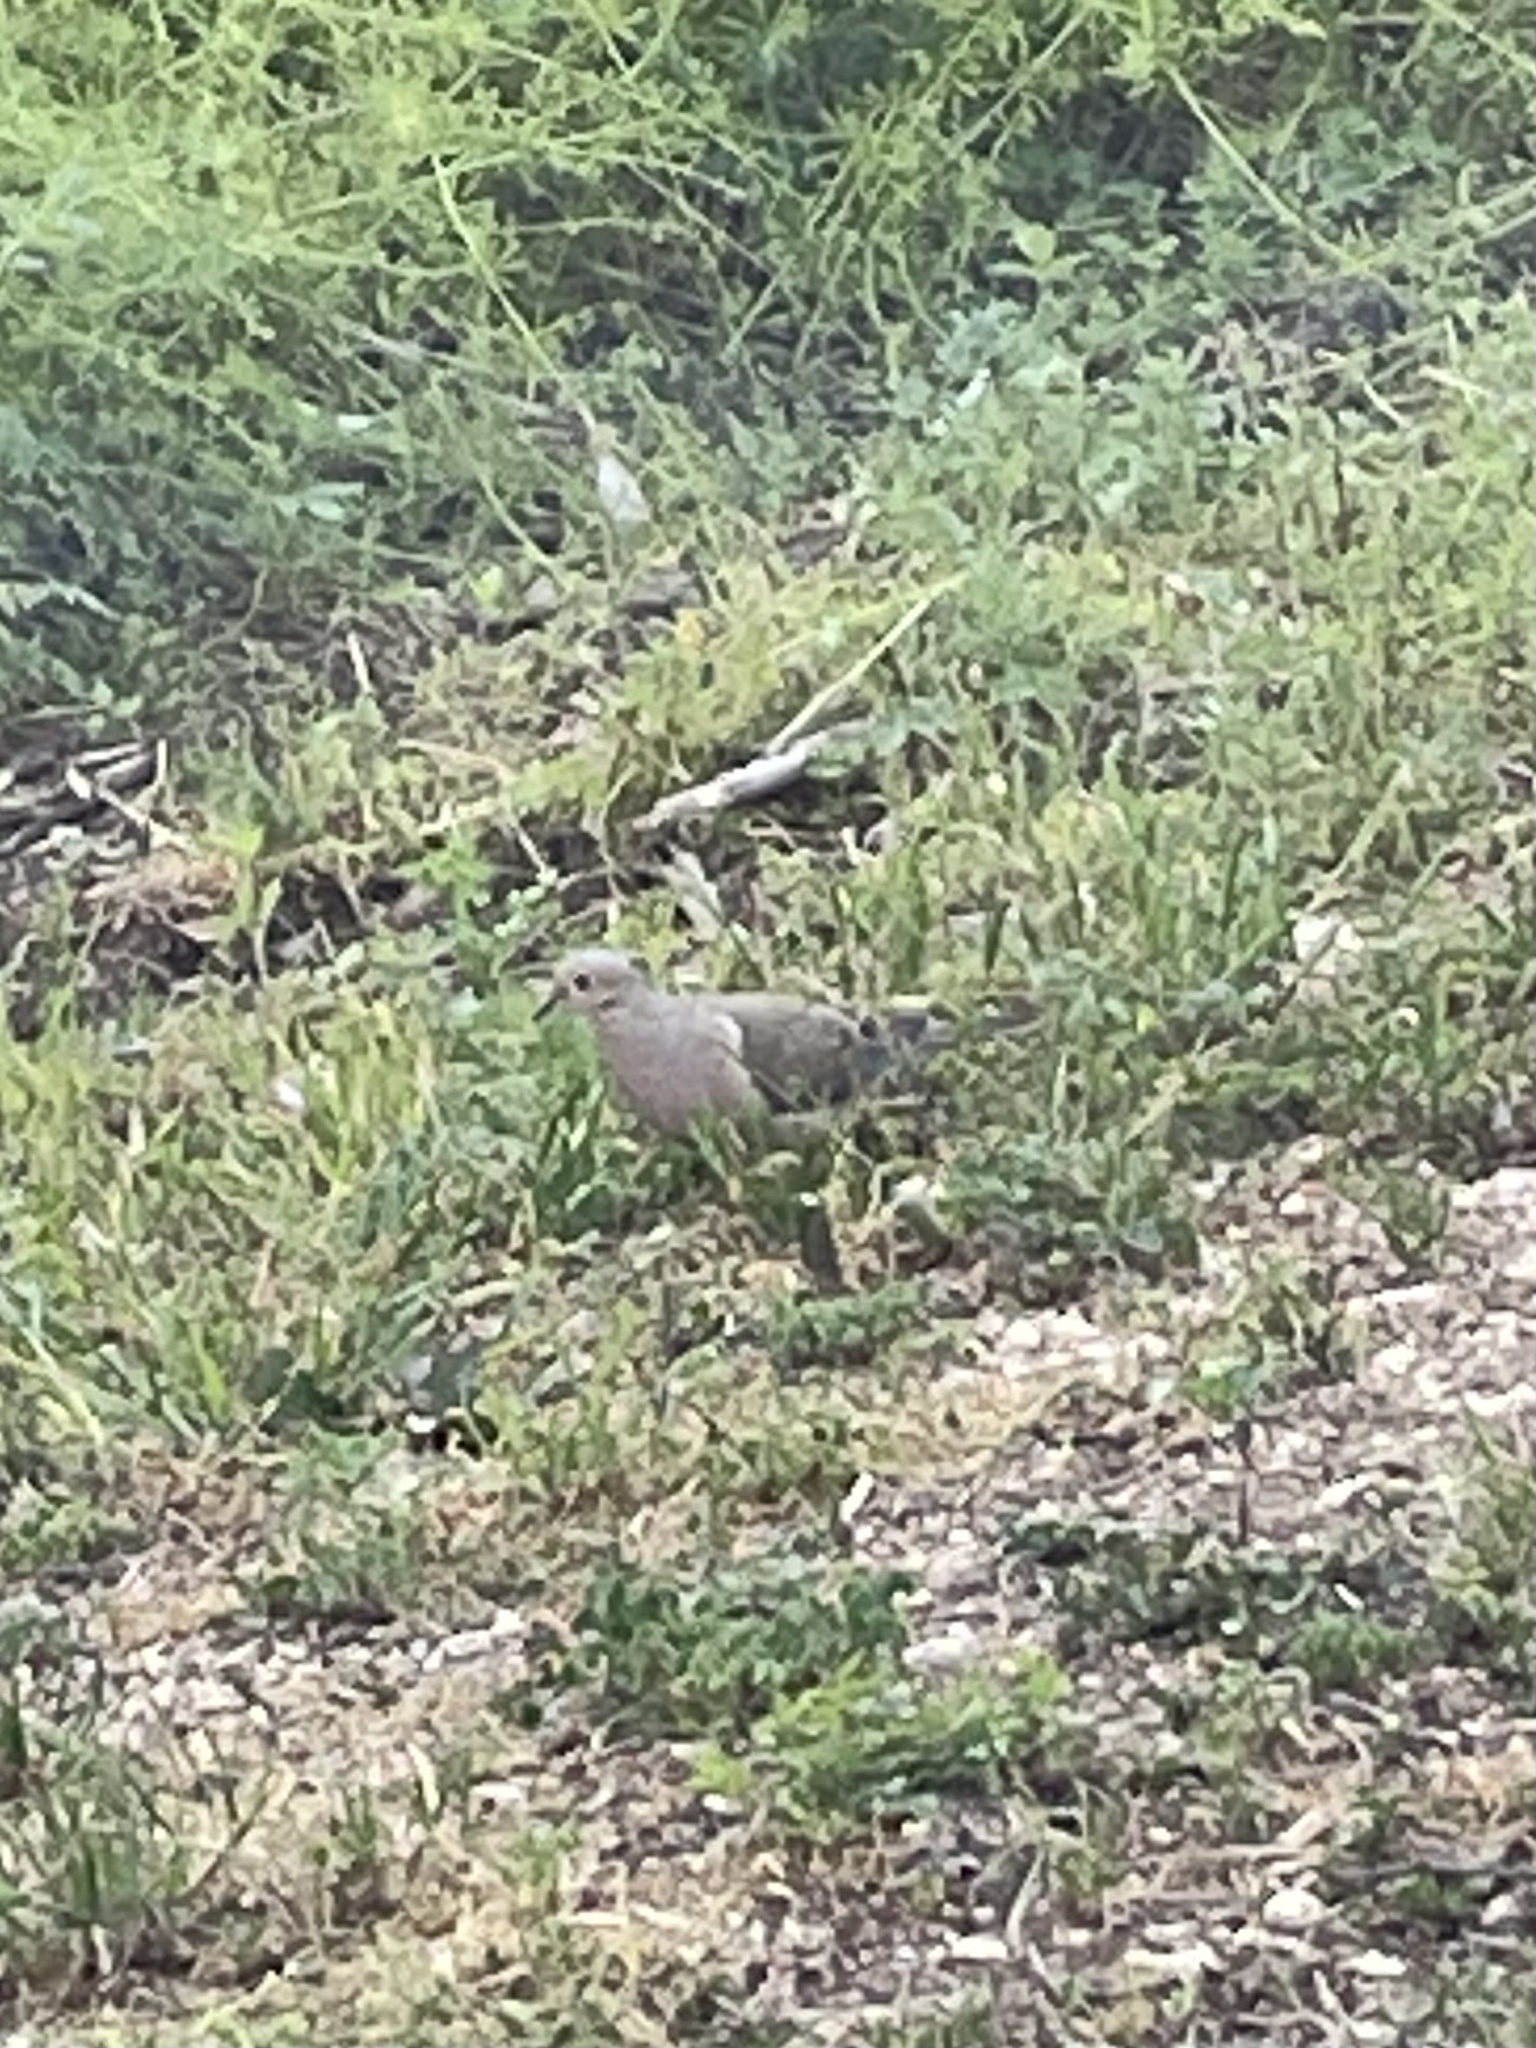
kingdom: Animalia
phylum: Chordata
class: Aves
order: Columbiformes
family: Columbidae
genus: Zenaida
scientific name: Zenaida macroura
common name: Mourning dove
